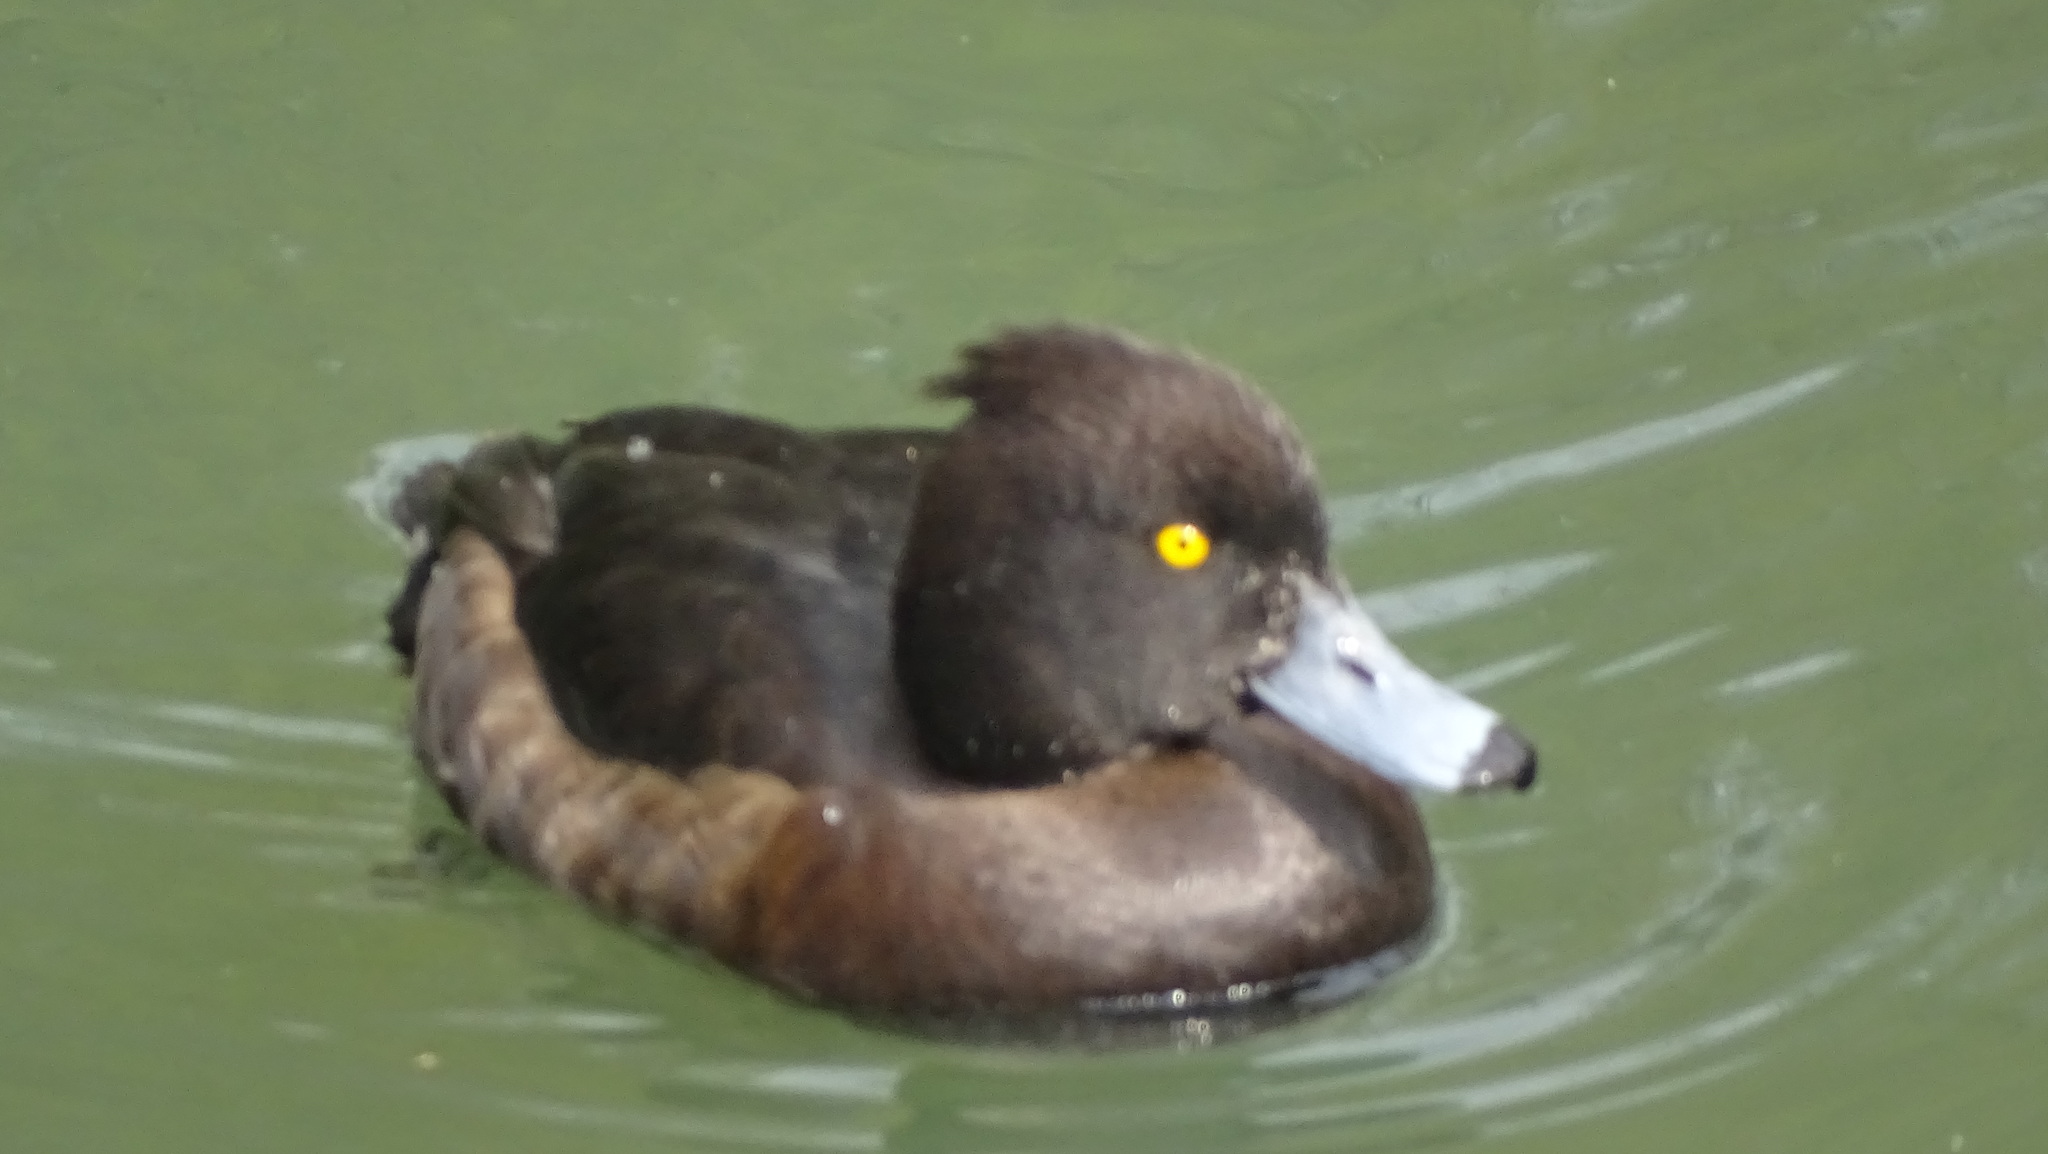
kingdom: Animalia
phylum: Chordata
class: Aves
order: Anseriformes
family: Anatidae
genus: Aythya
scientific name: Aythya fuligula
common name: Tufted duck
